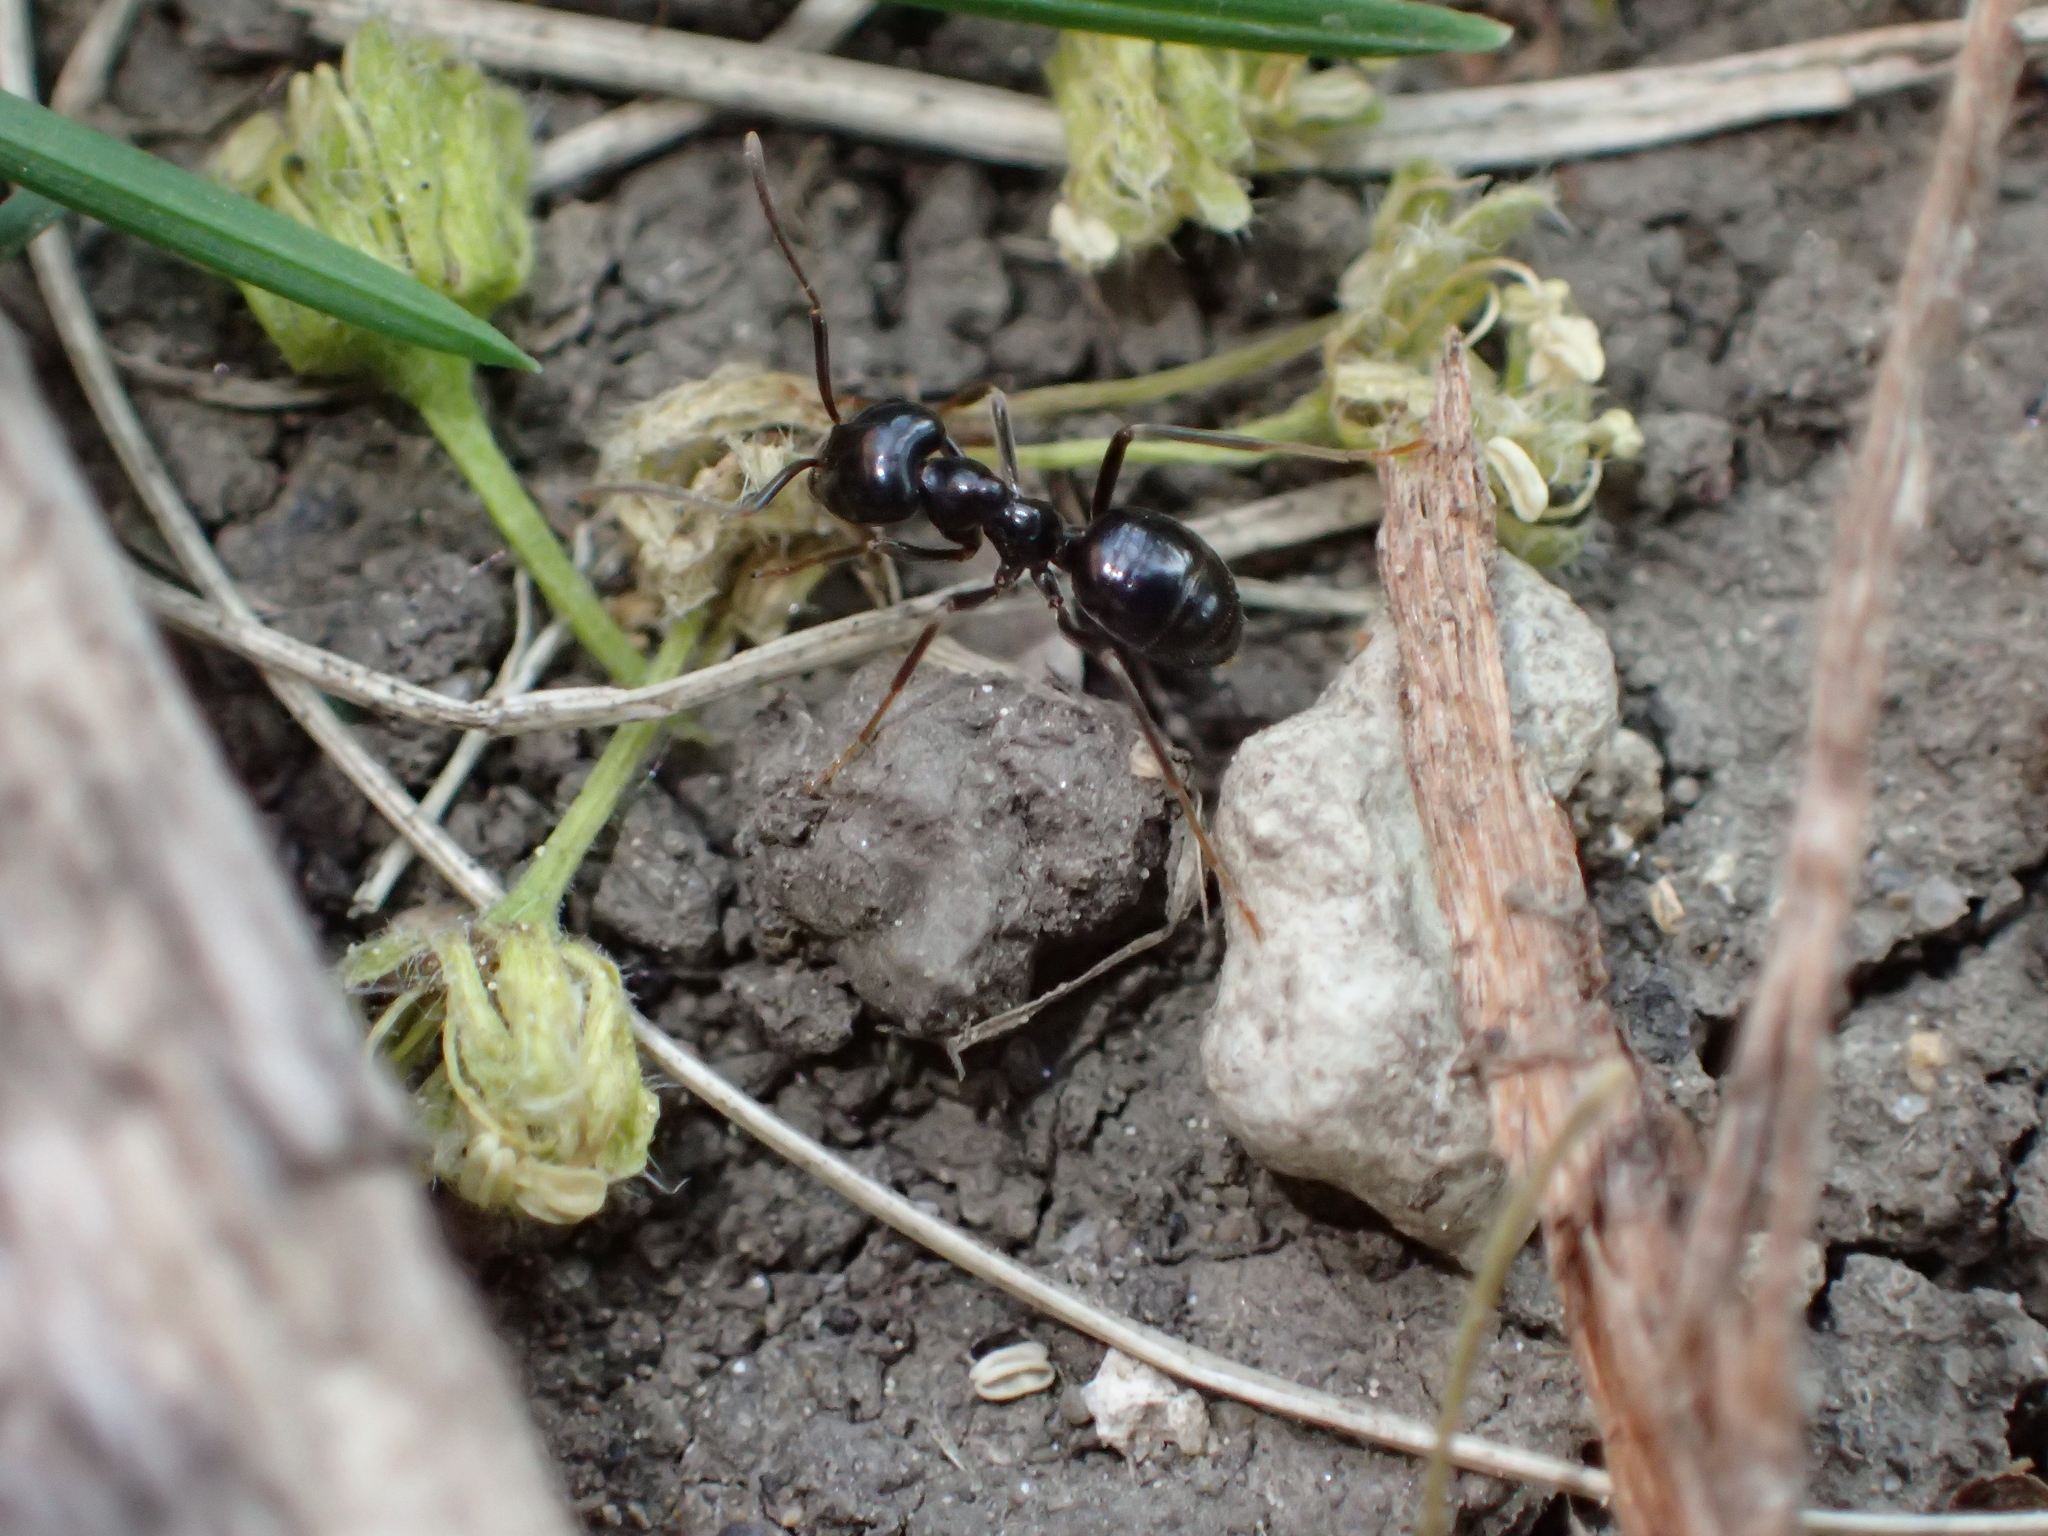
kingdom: Animalia
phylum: Arthropoda
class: Insecta
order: Hymenoptera
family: Formicidae
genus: Lasius
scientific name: Lasius fuliginosus
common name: Jet ant
